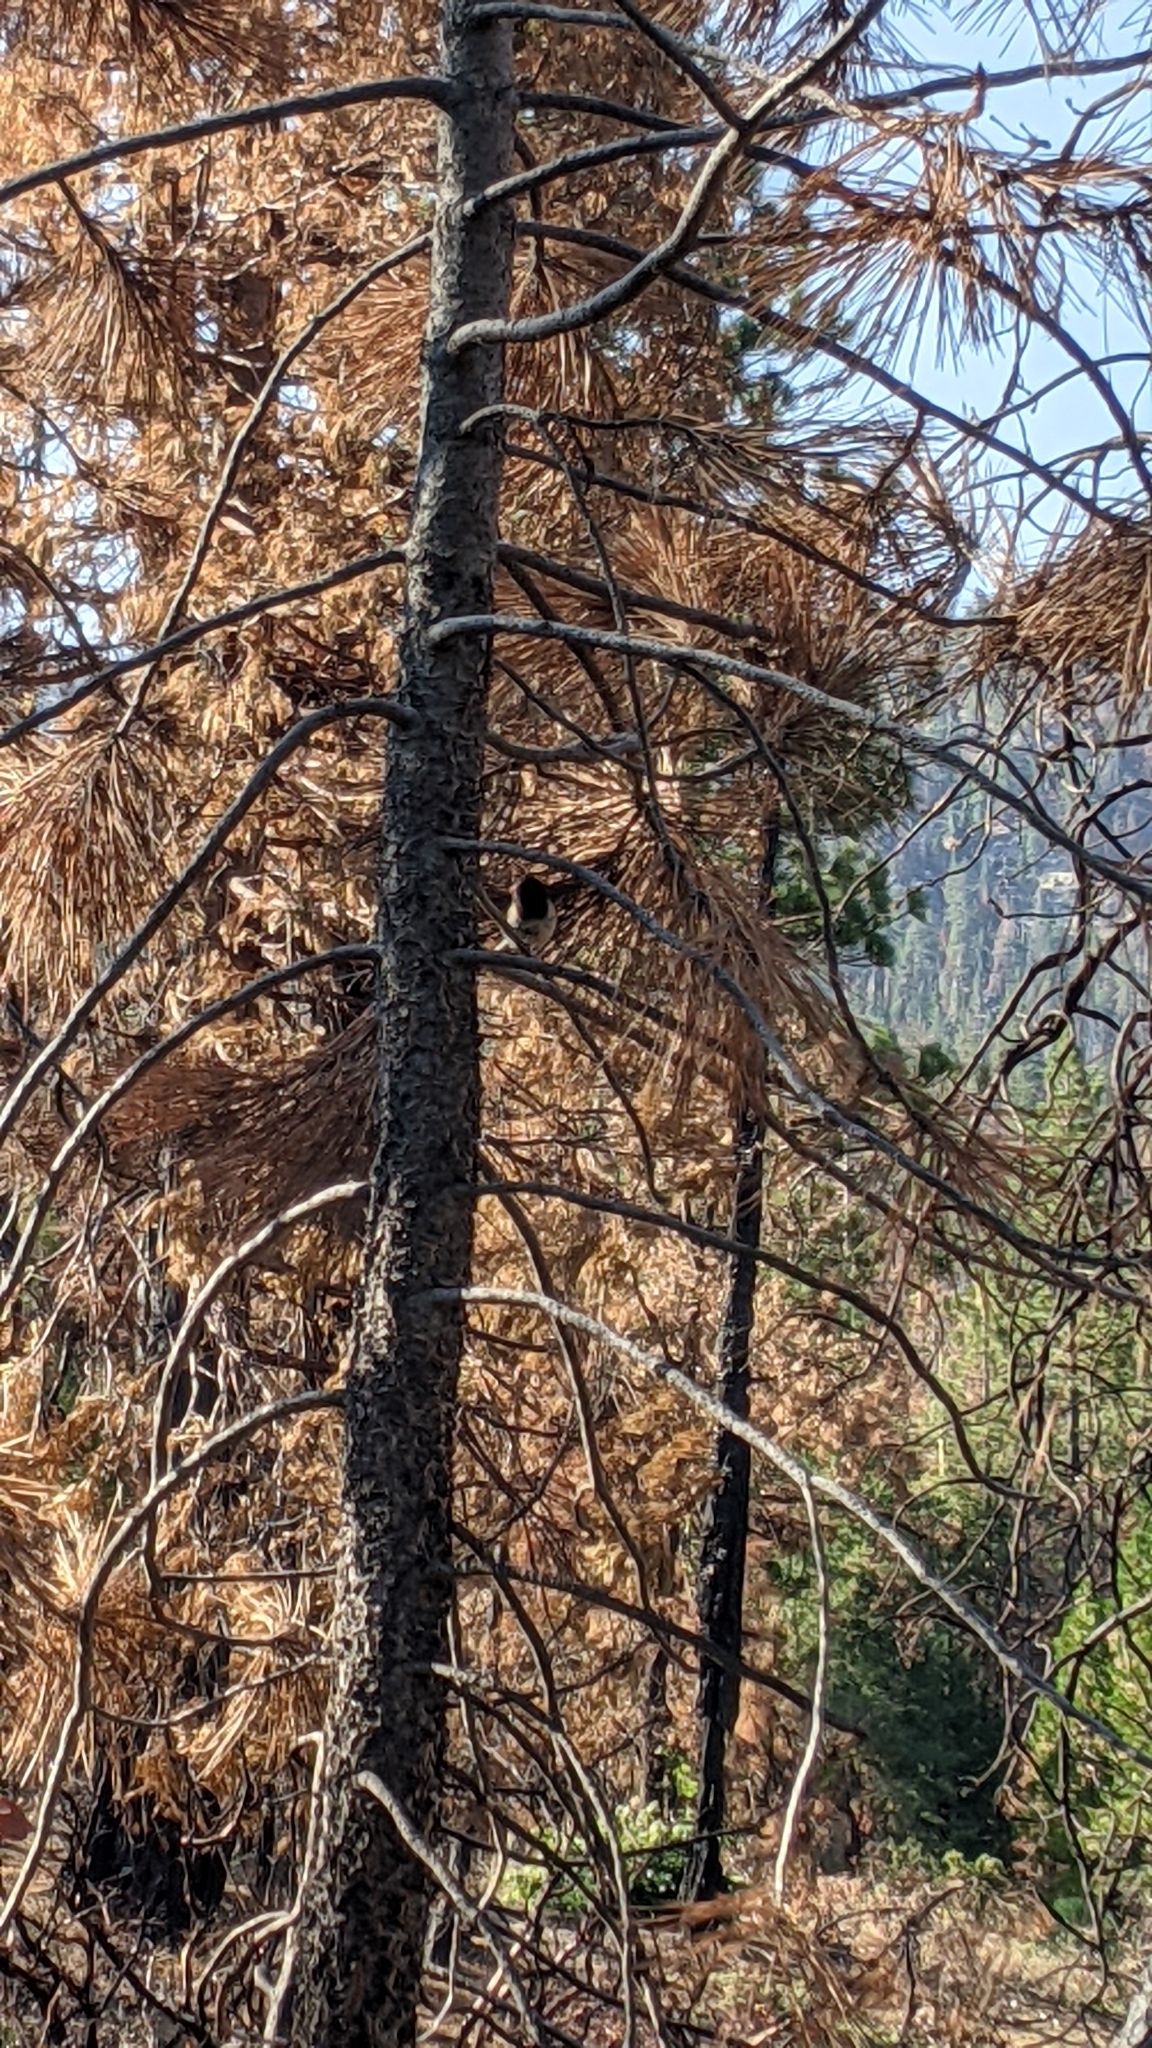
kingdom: Animalia
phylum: Chordata
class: Aves
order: Passeriformes
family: Passerellidae
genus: Junco
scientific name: Junco hyemalis
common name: Dark-eyed junco
